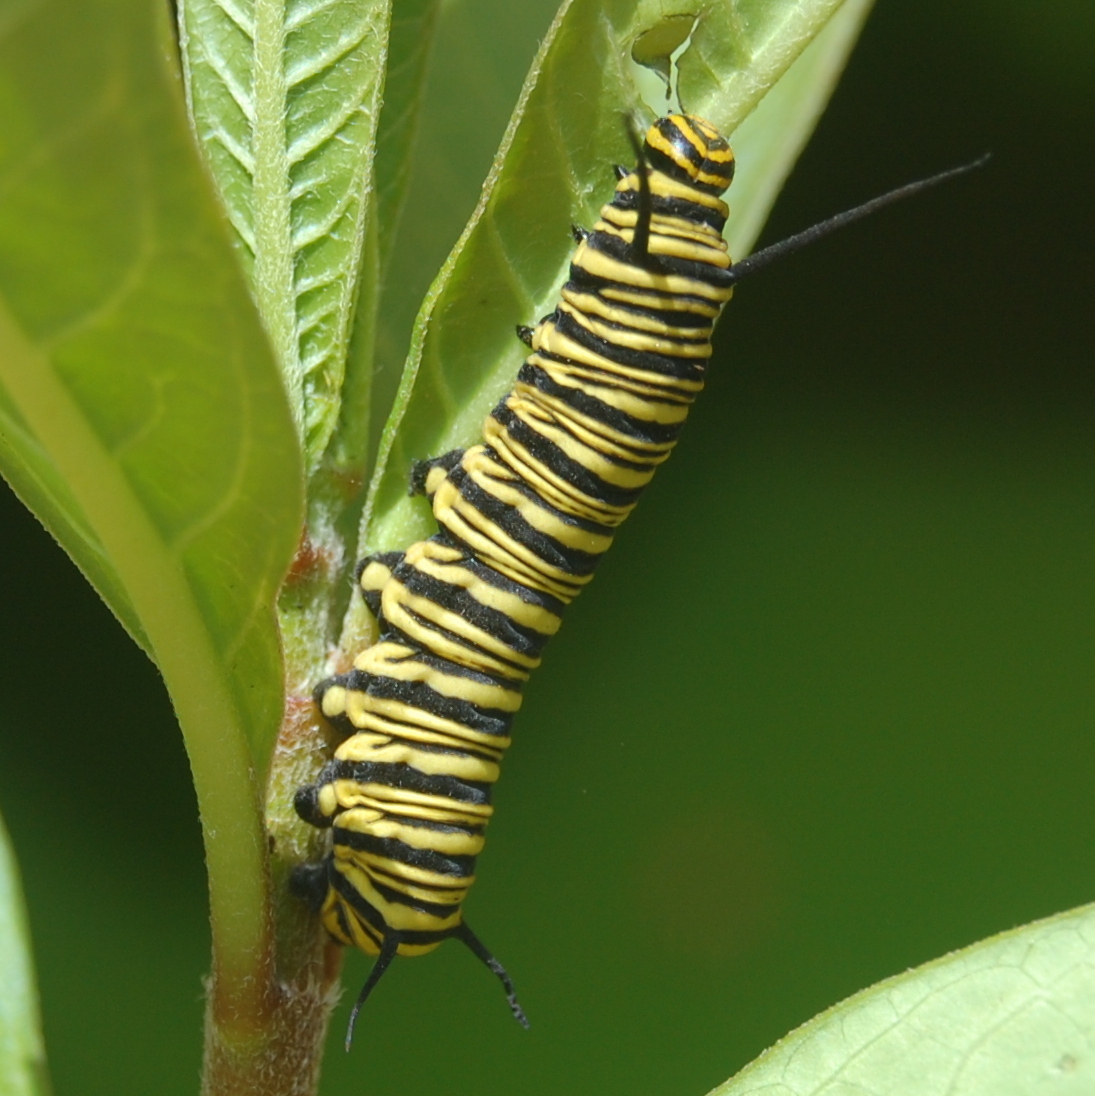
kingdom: Animalia
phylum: Arthropoda
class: Insecta
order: Lepidoptera
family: Nymphalidae
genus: Danaus
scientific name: Danaus erippus
